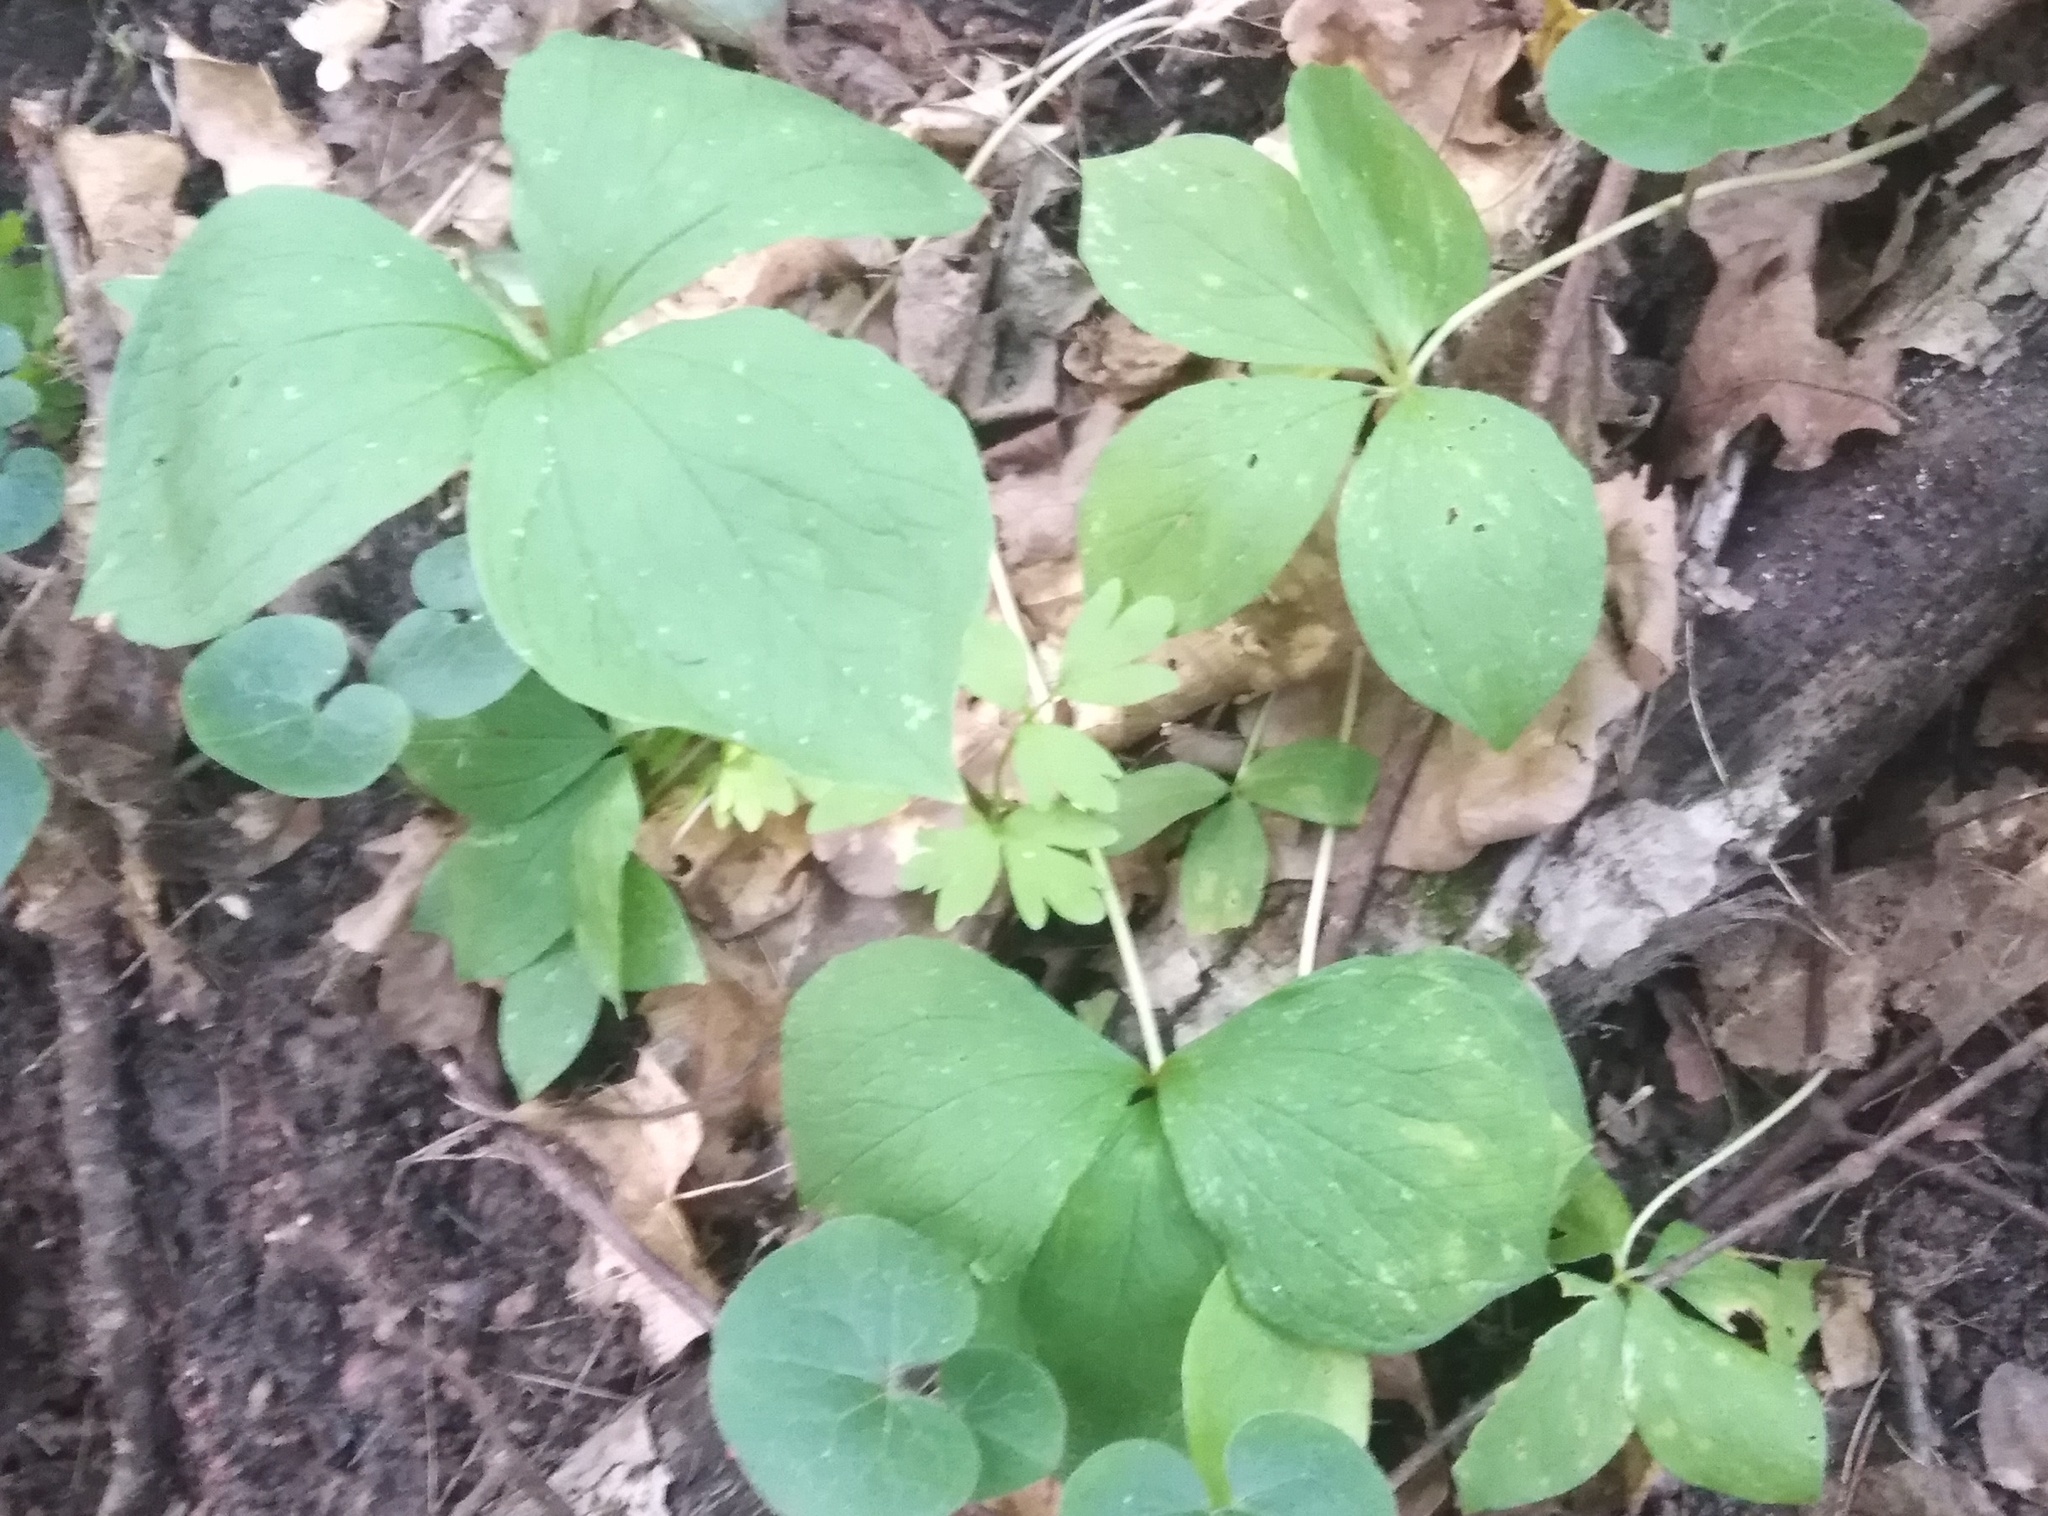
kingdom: Plantae
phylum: Tracheophyta
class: Liliopsida
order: Liliales
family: Melanthiaceae
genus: Paris
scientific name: Paris quadrifolia
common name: Herb-paris
